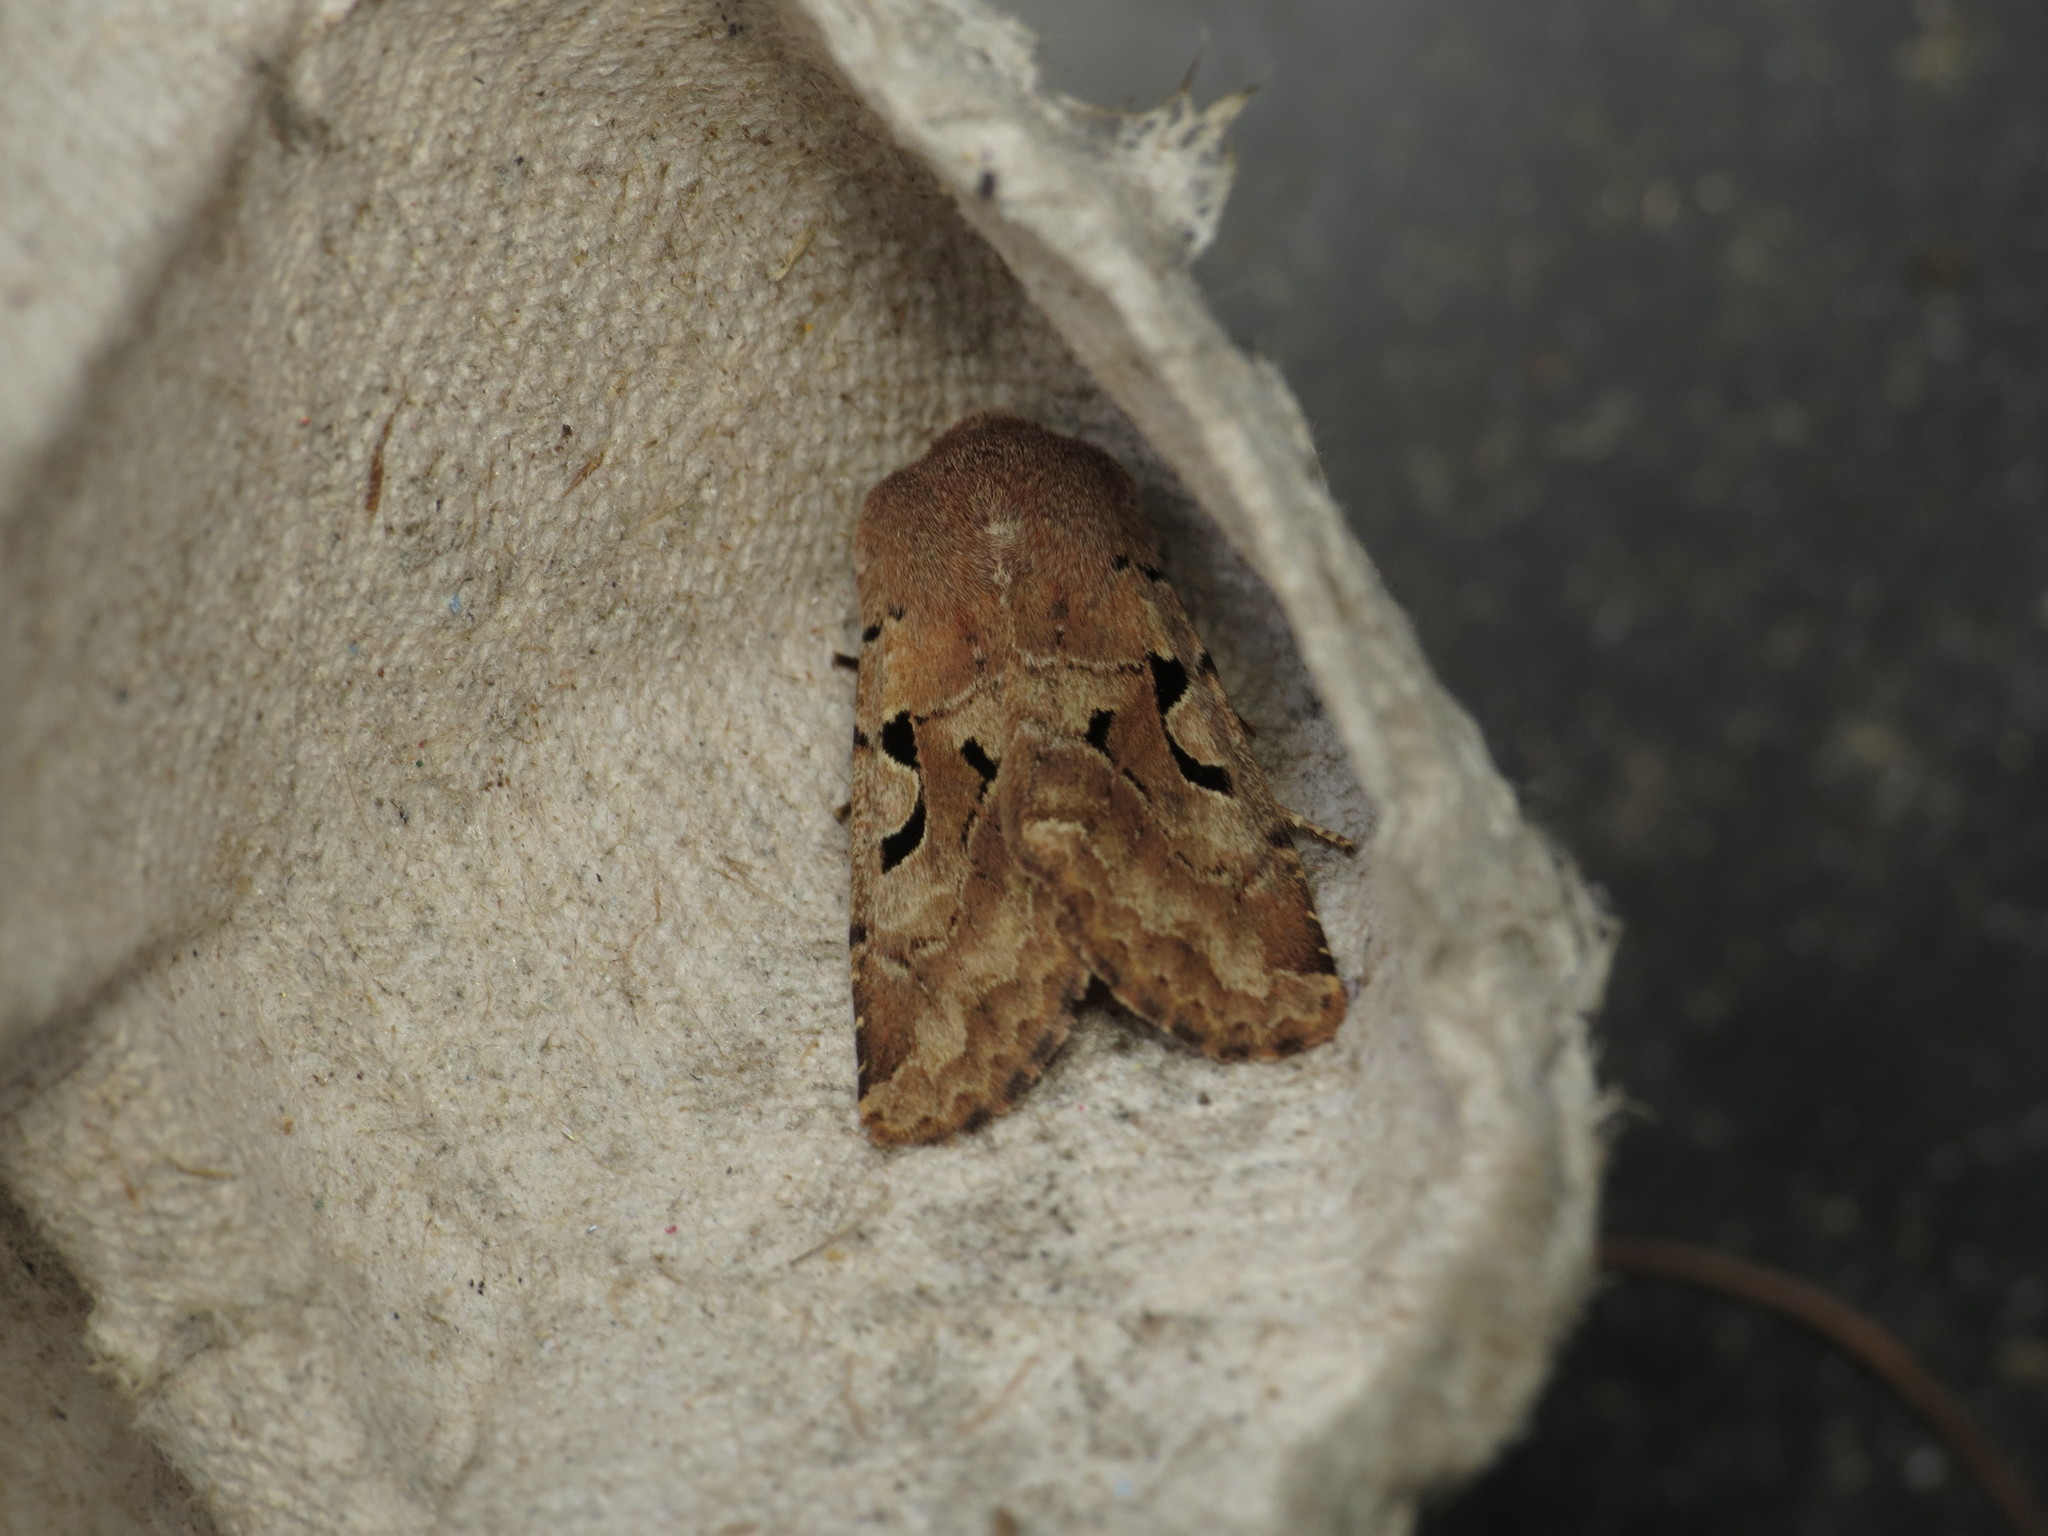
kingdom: Animalia
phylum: Arthropoda
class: Insecta
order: Lepidoptera
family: Noctuidae
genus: Orthosia
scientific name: Orthosia gothica
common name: Hebrew character
